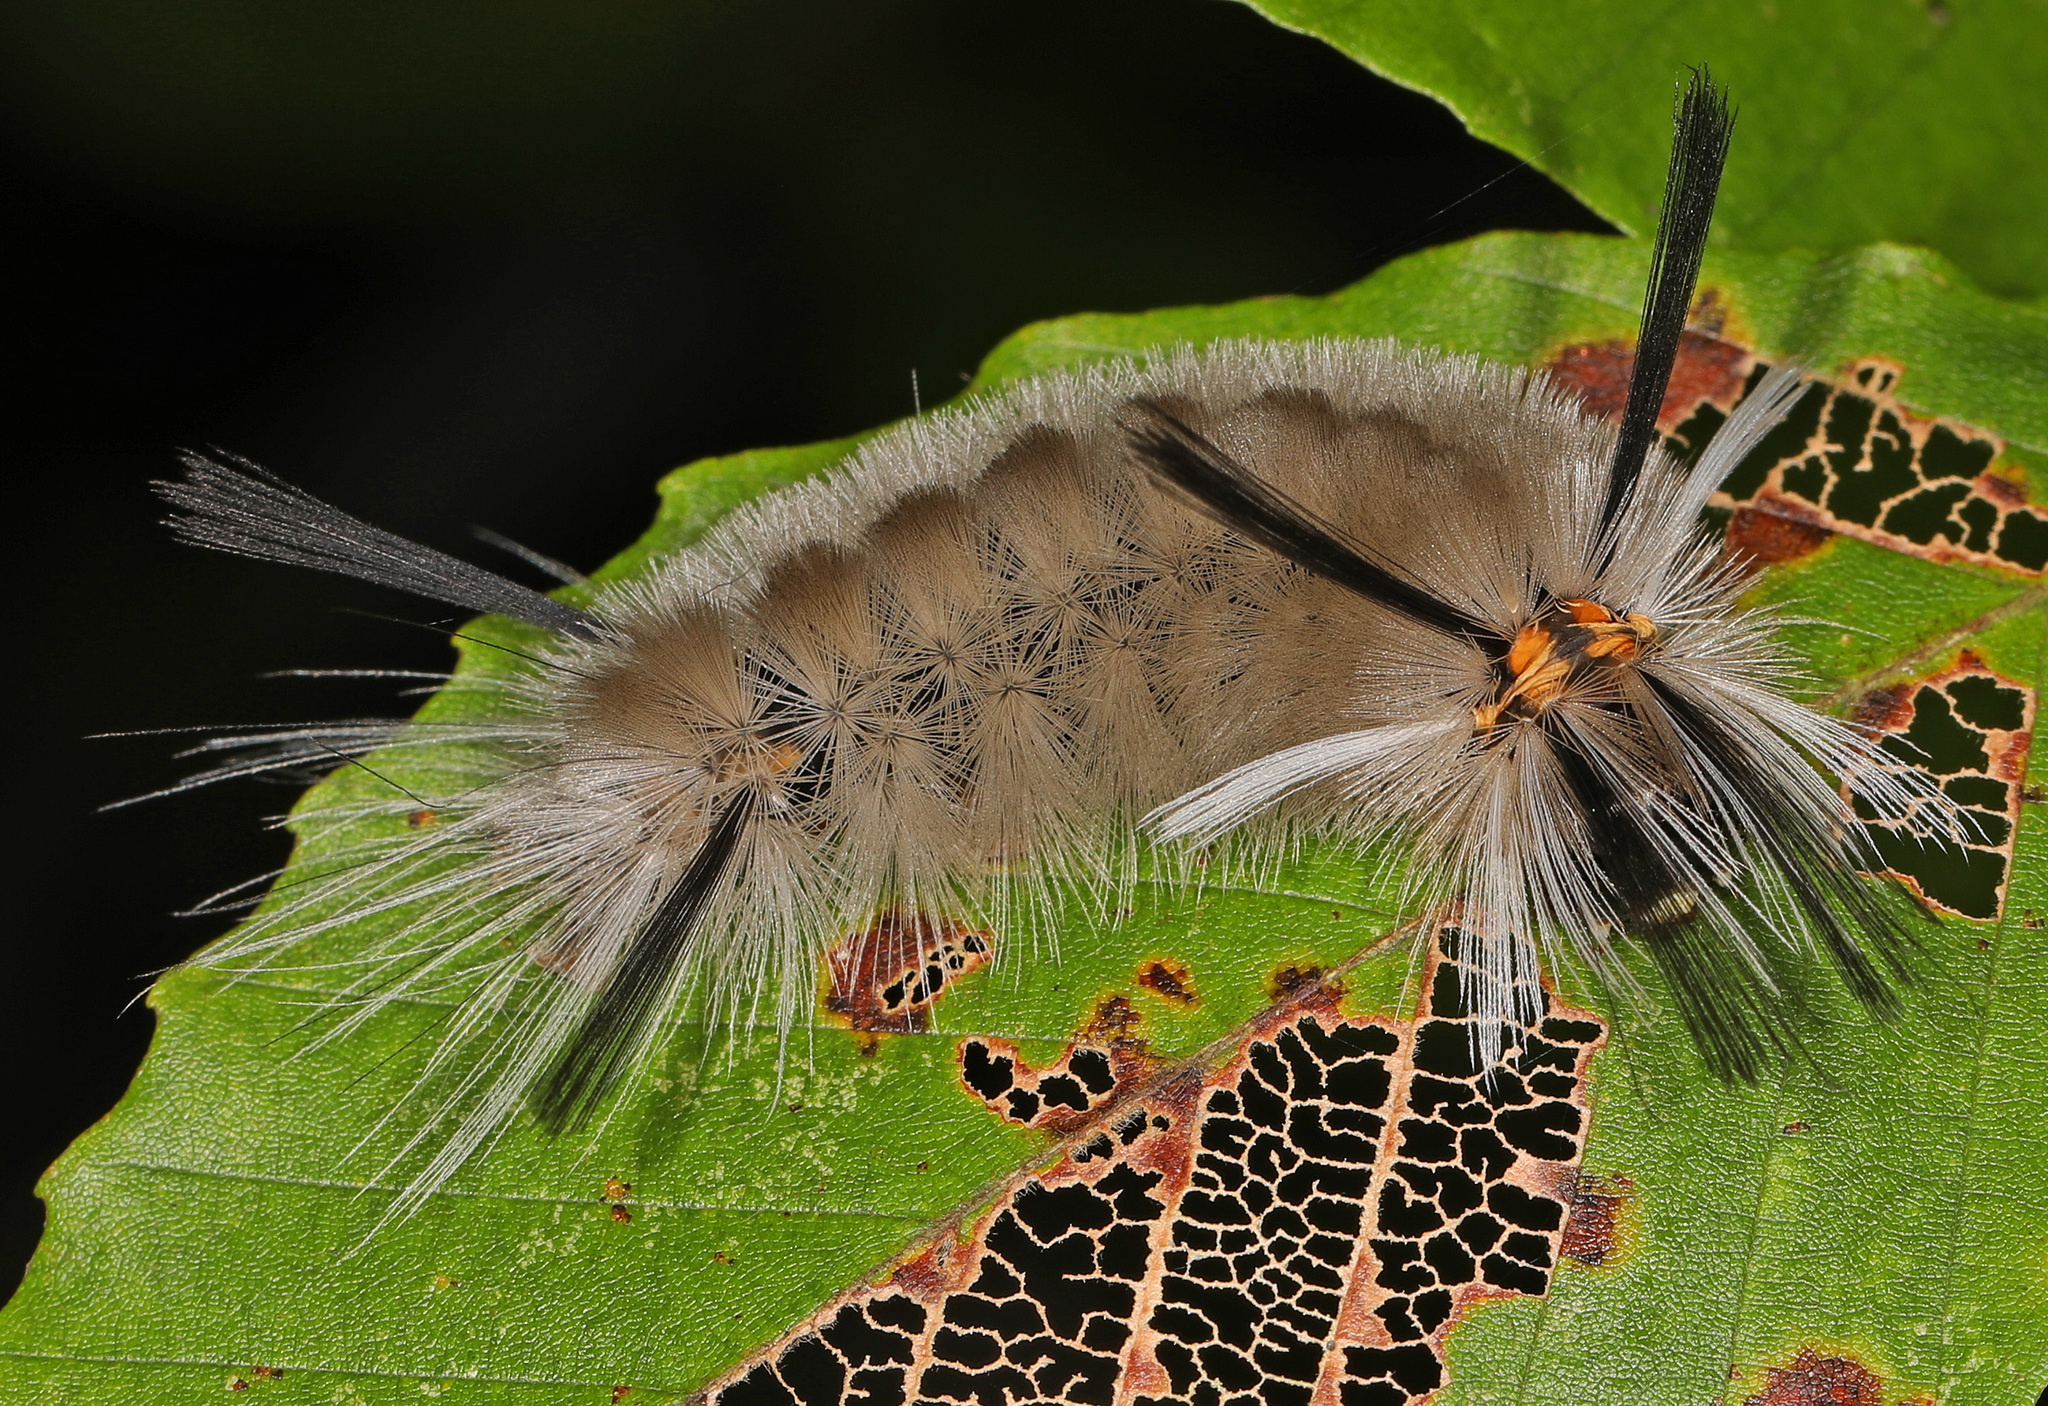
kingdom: Animalia
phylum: Arthropoda
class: Insecta
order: Lepidoptera
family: Erebidae
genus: Halysidota
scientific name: Halysidota tessellaris
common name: Banded tussock moth
